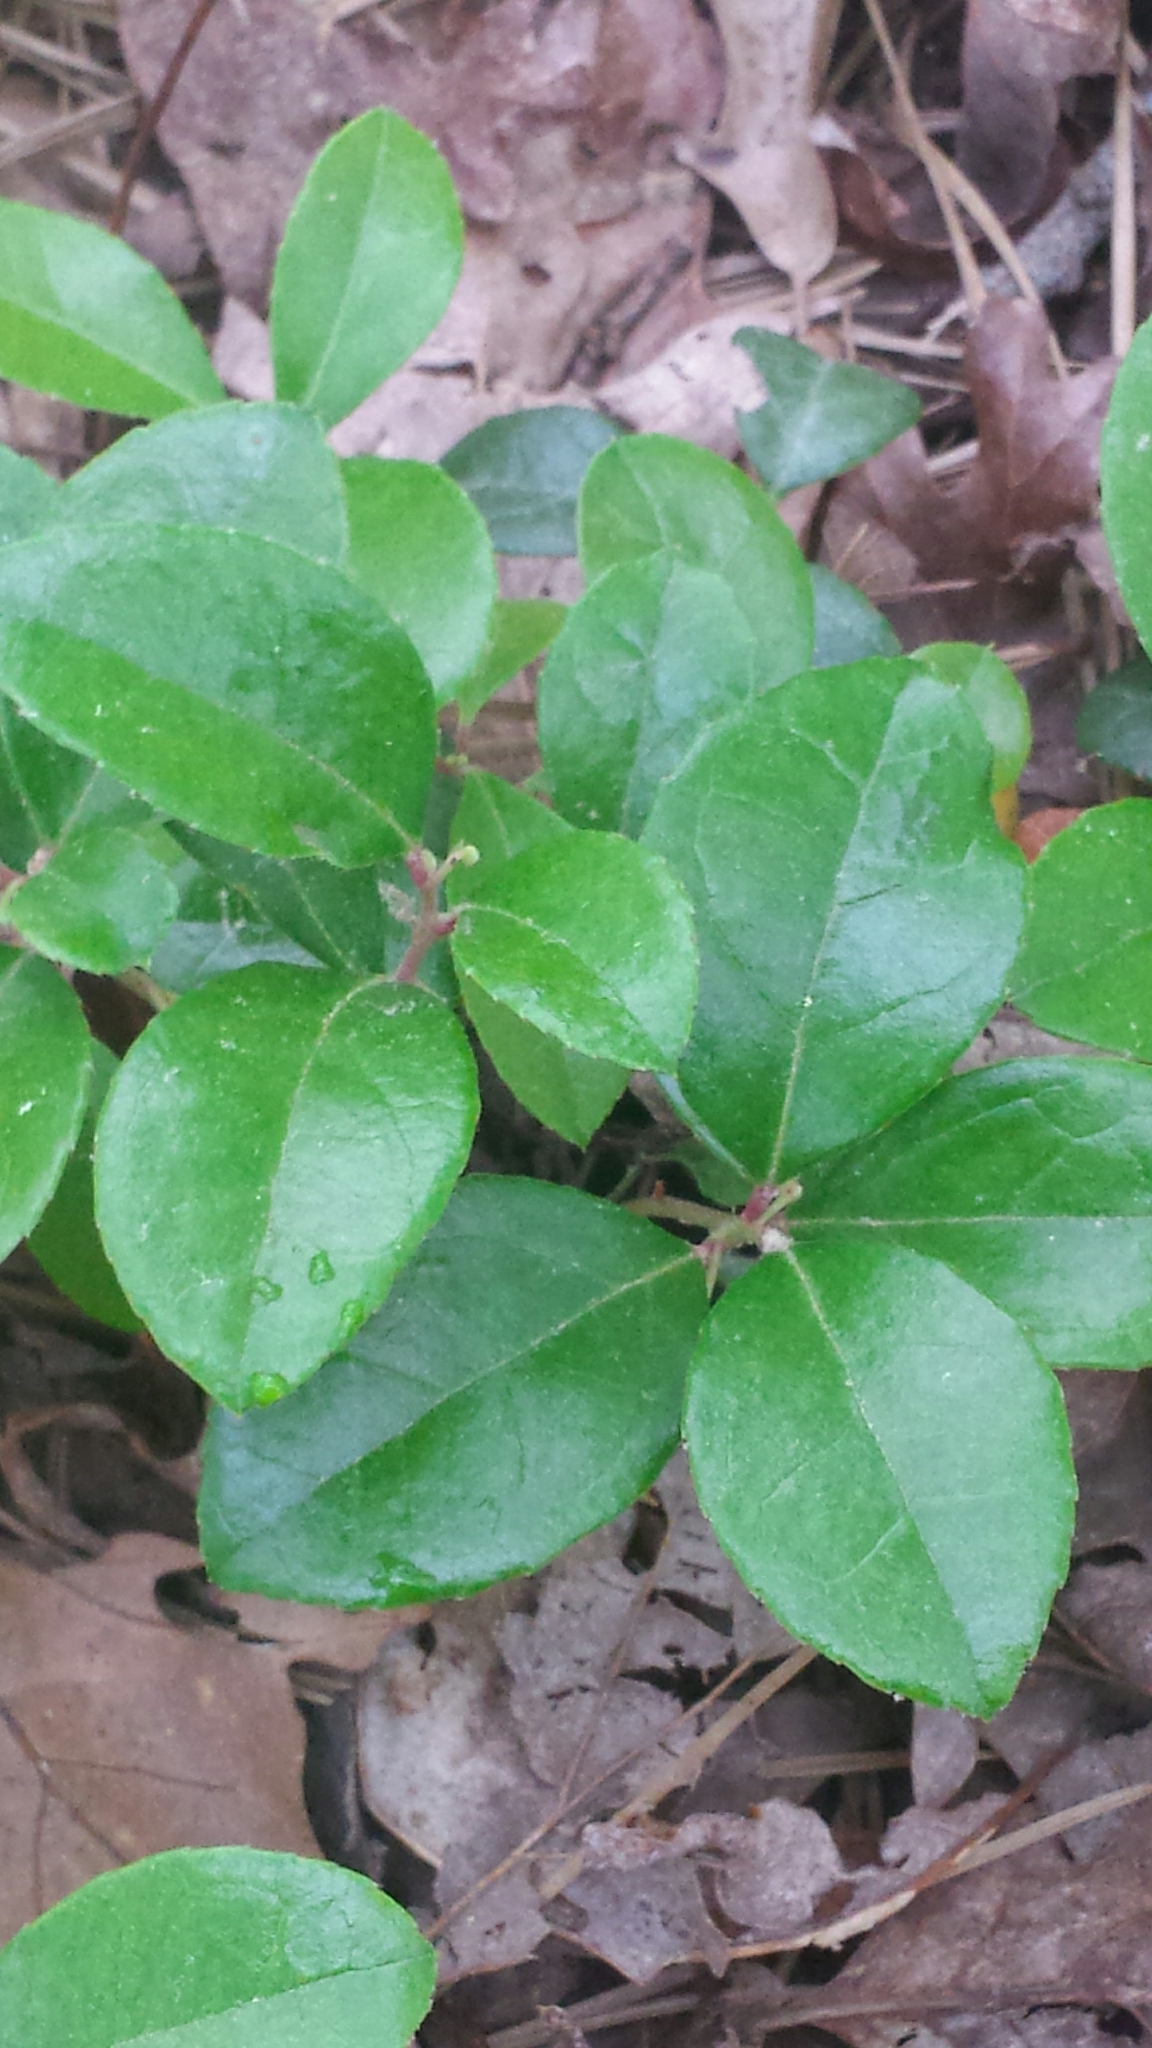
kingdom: Plantae
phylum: Tracheophyta
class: Magnoliopsida
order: Ericales
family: Ericaceae
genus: Gaultheria
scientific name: Gaultheria procumbens
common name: Checkerberry
